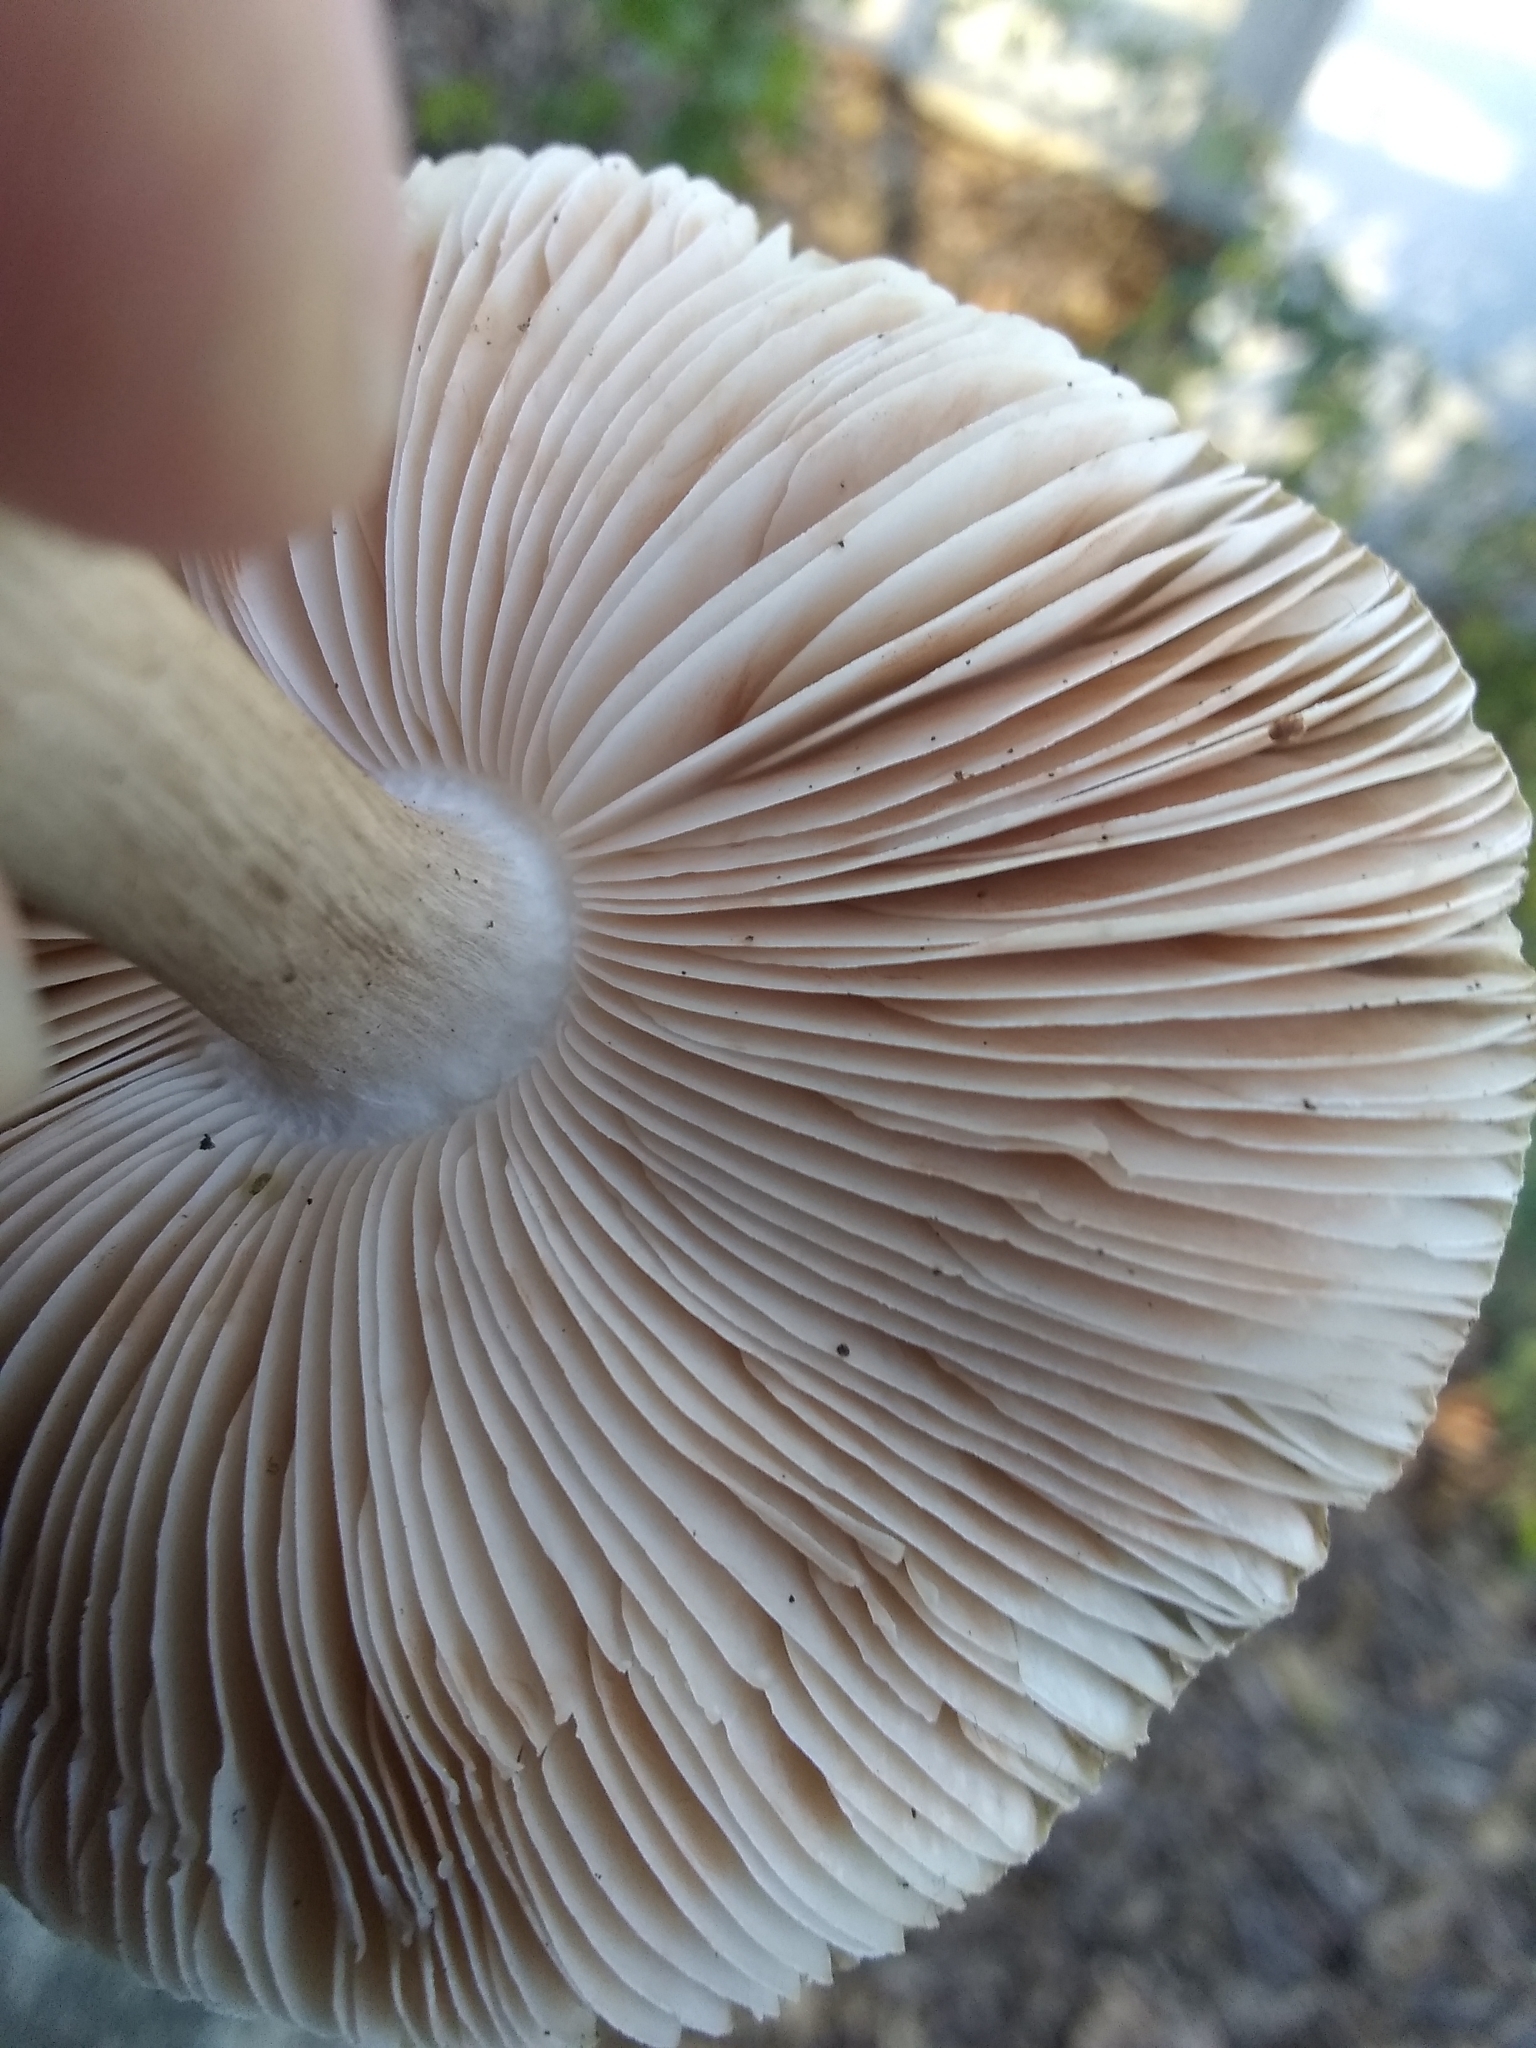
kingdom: Fungi
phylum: Basidiomycota
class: Agaricomycetes
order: Agaricales
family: Pluteaceae
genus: Pluteus
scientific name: Pluteus cervinus
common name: Deer shield
